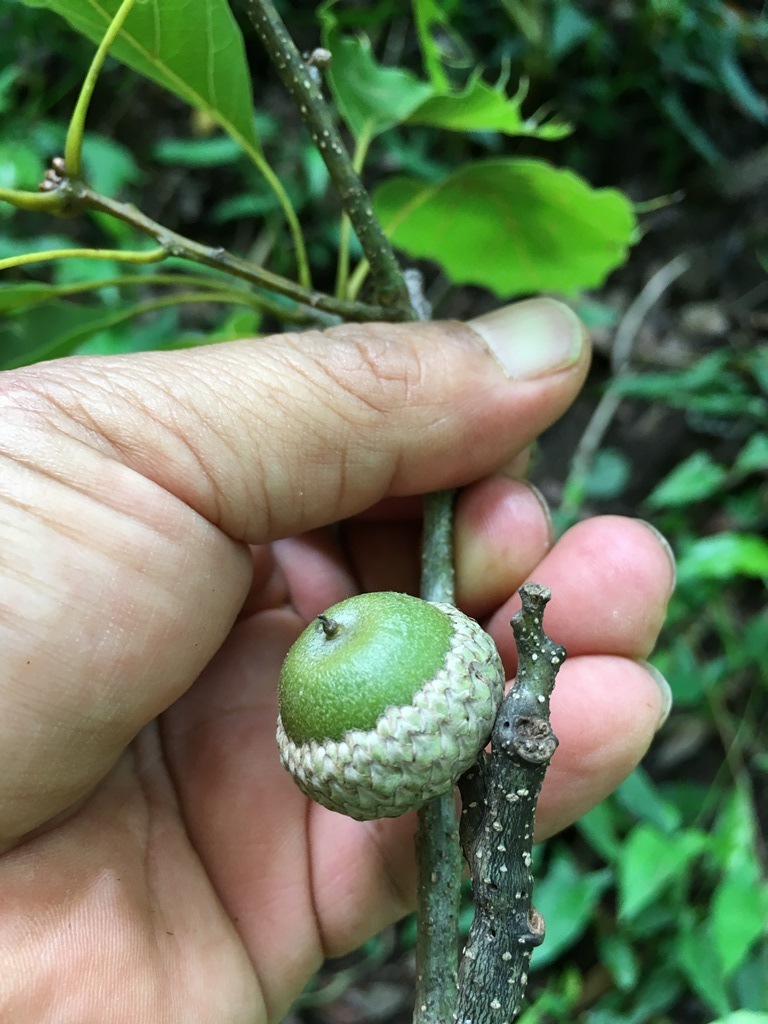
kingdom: Plantae
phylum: Tracheophyta
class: Magnoliopsida
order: Fagales
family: Fagaceae
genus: Quercus
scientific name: Quercus paxtalensis
